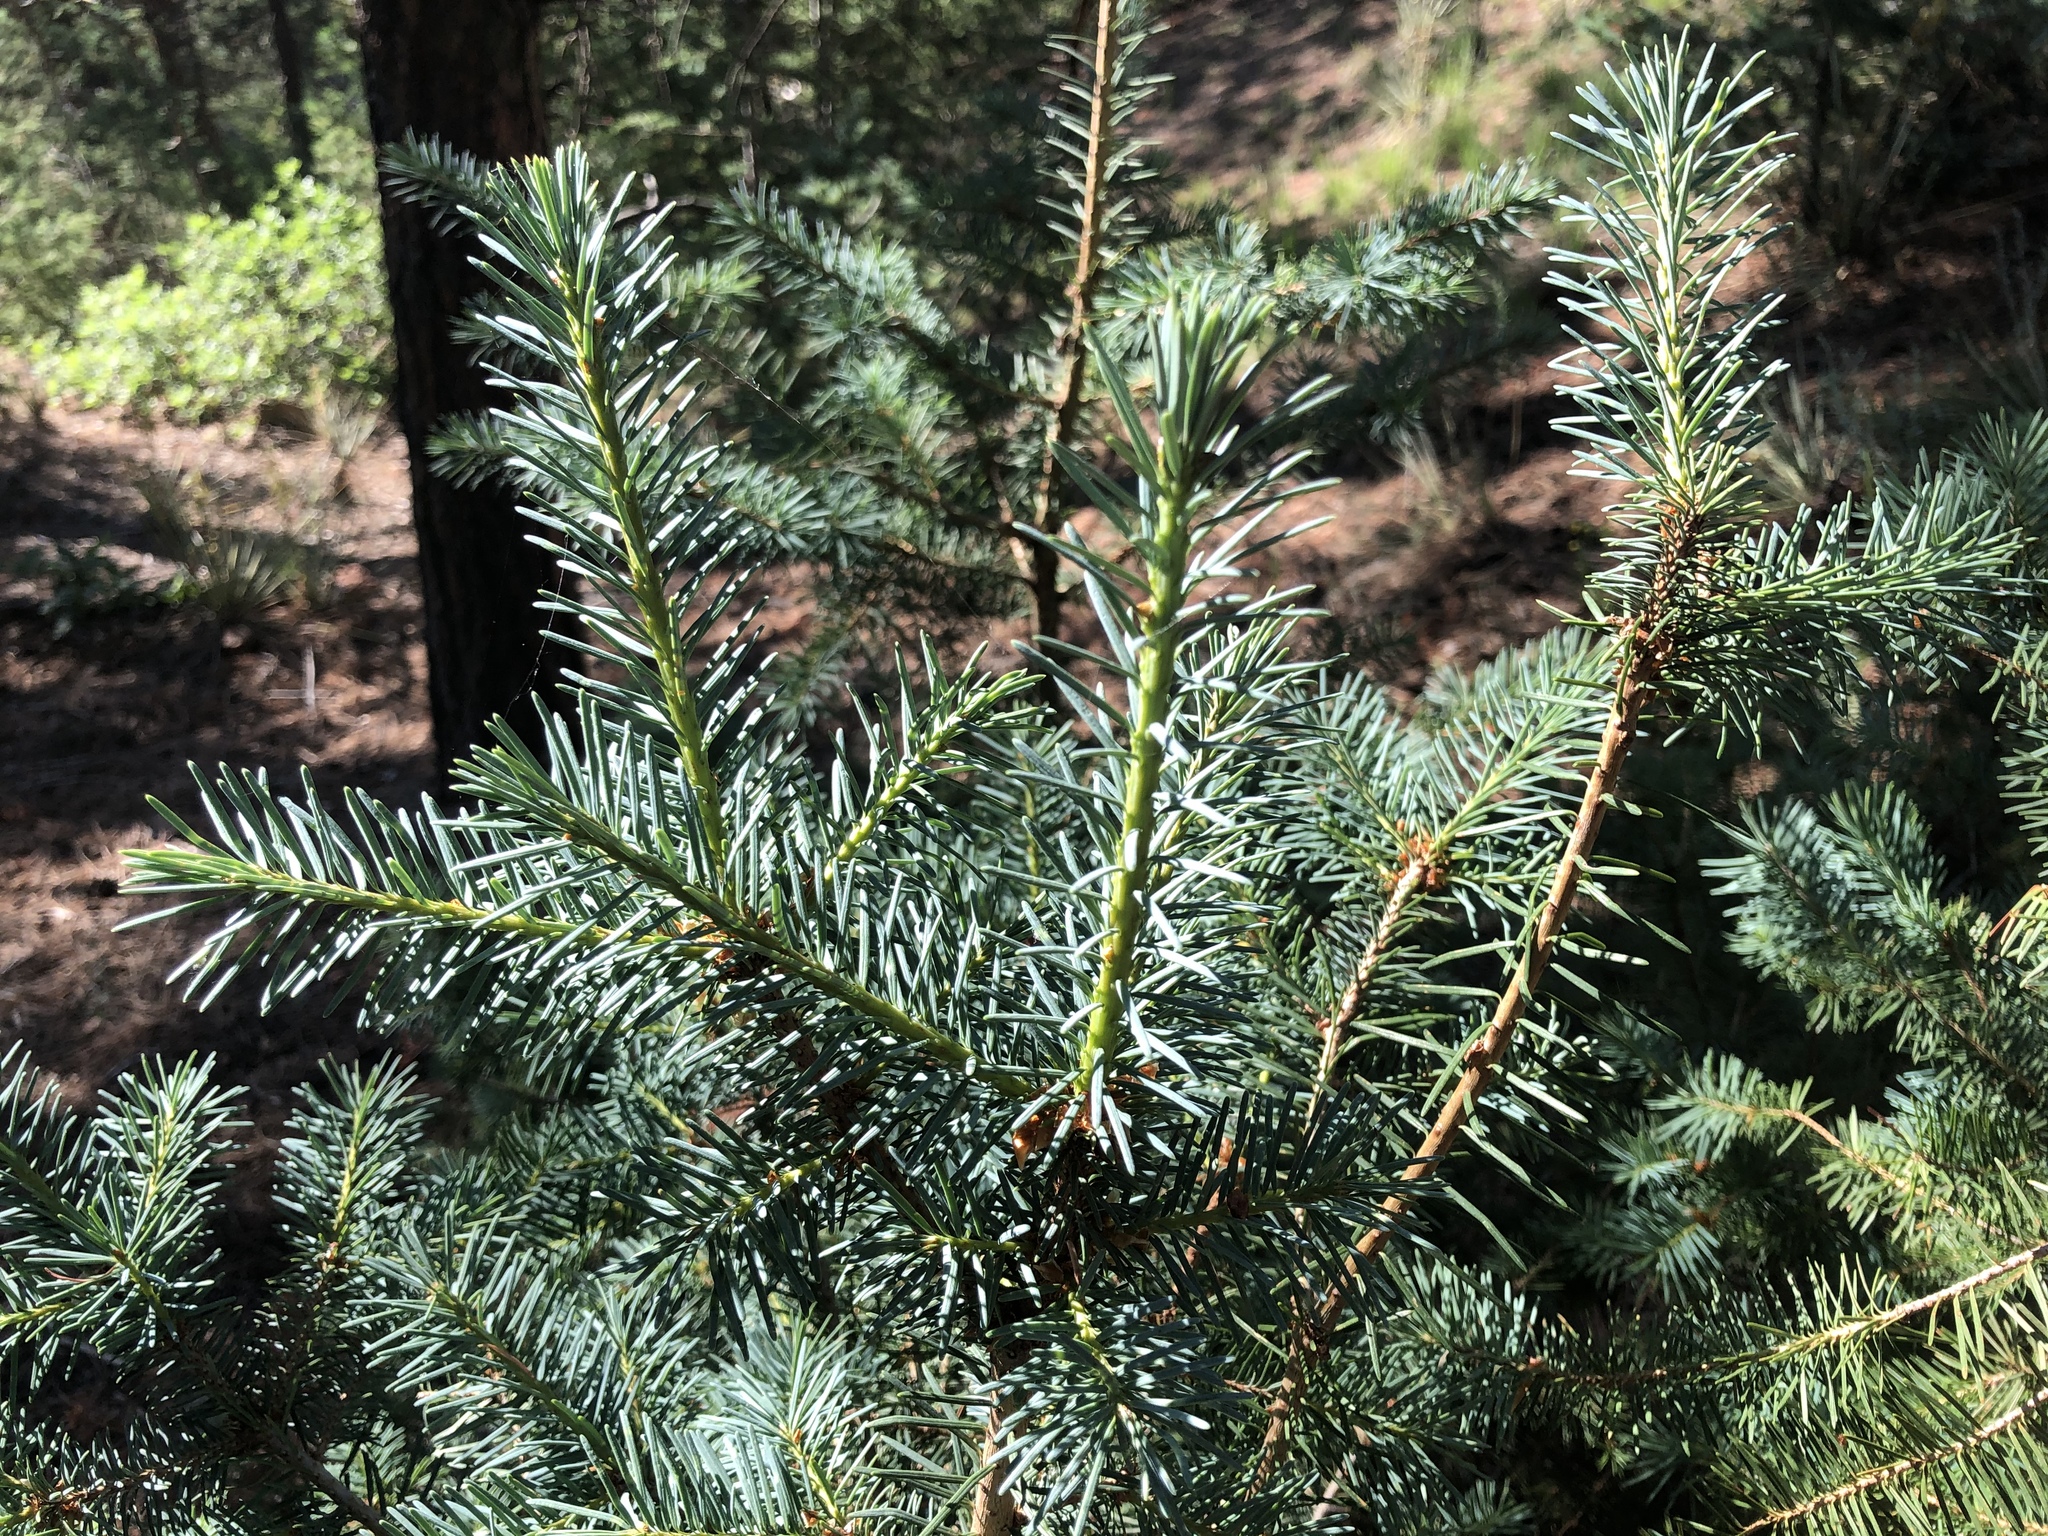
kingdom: Plantae
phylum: Tracheophyta
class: Pinopsida
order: Pinales
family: Pinaceae
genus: Pseudotsuga
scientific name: Pseudotsuga menziesii
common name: Douglas fir
